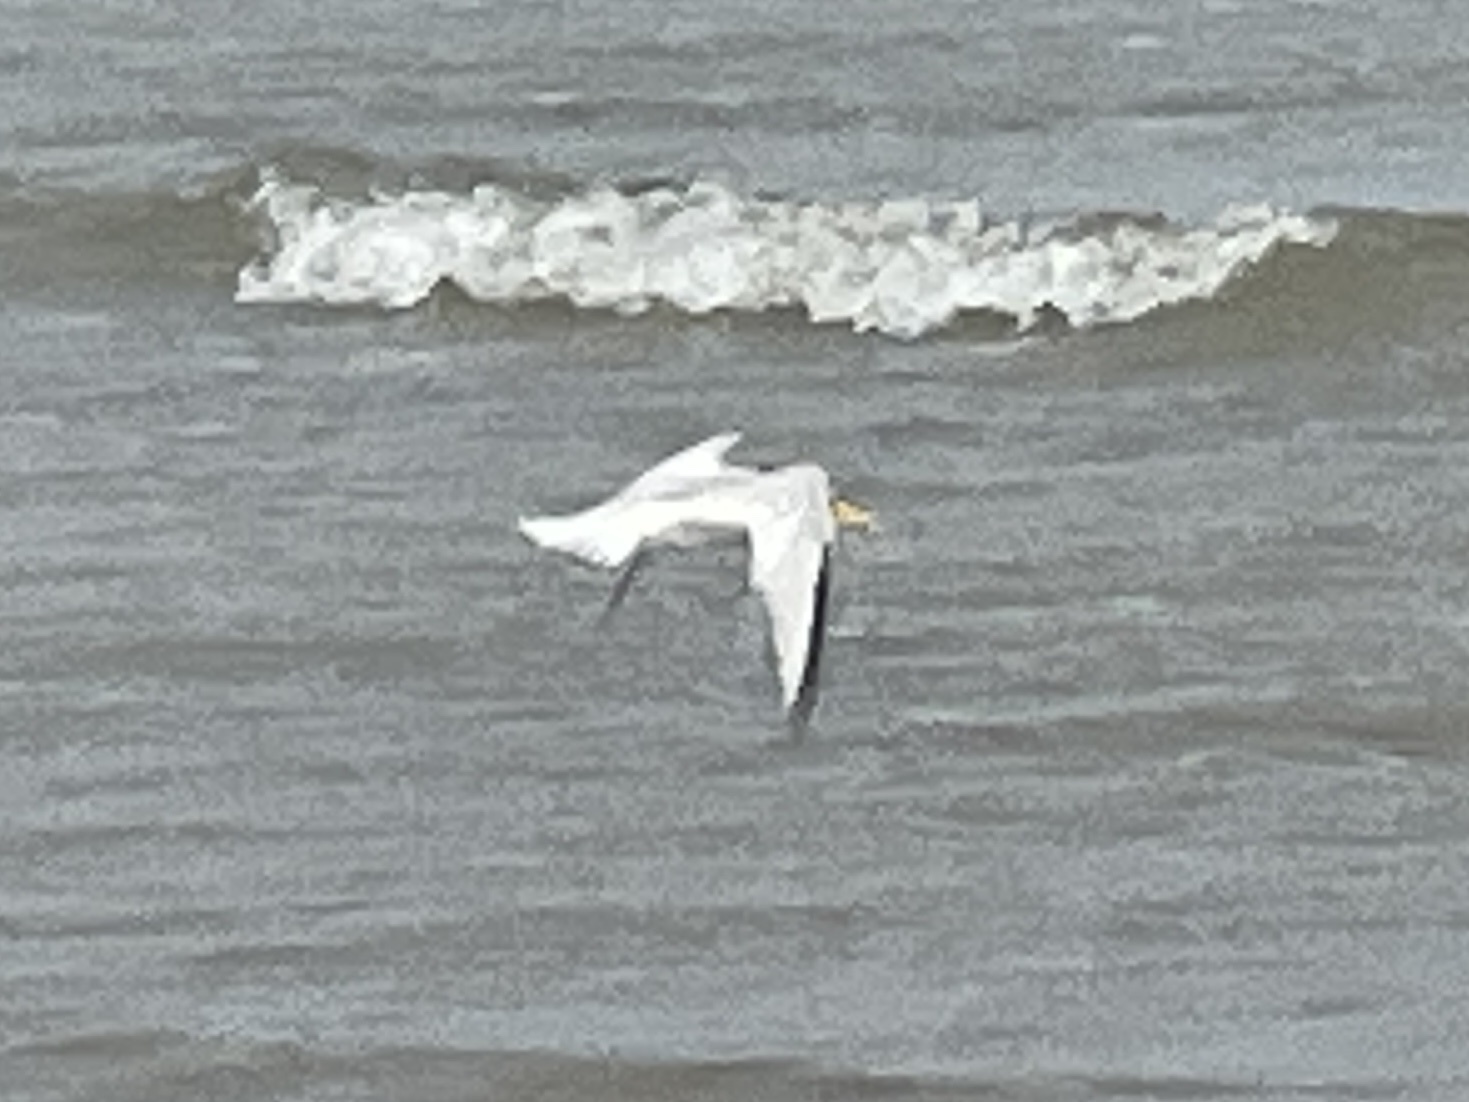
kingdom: Animalia
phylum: Chordata
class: Aves
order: Charadriiformes
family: Laridae
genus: Sternula
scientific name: Sternula antillarum
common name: Least tern
